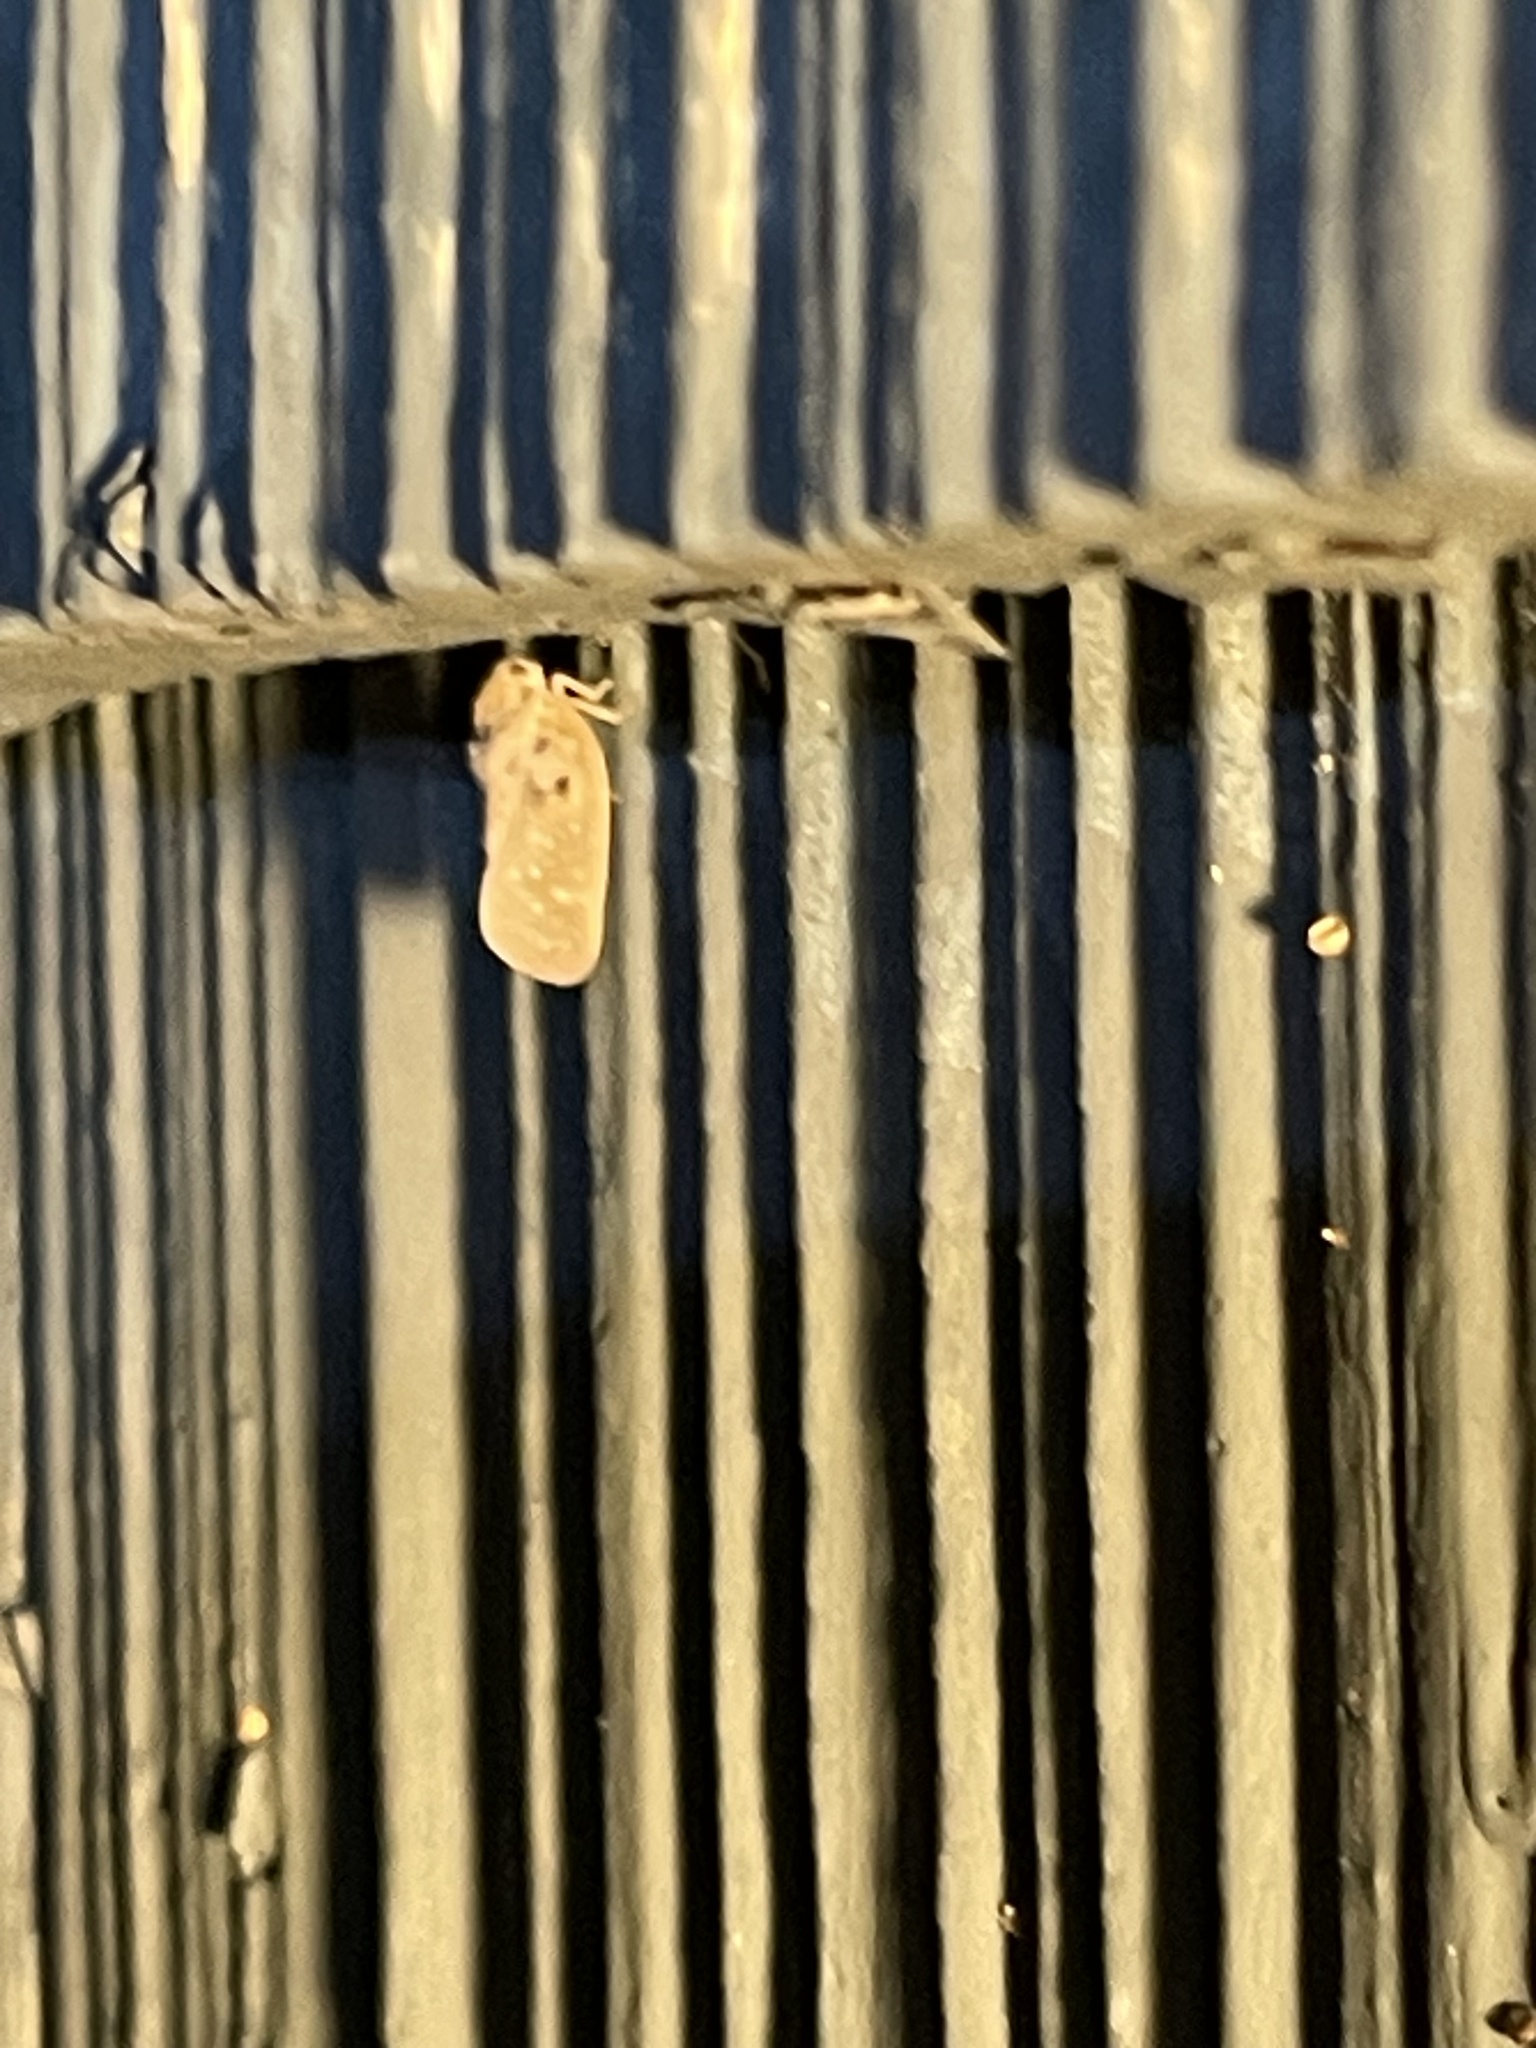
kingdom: Animalia
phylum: Arthropoda
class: Insecta
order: Hemiptera
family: Flatidae
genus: Metcalfa
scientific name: Metcalfa pruinosa
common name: Citrus flatid planthopper
